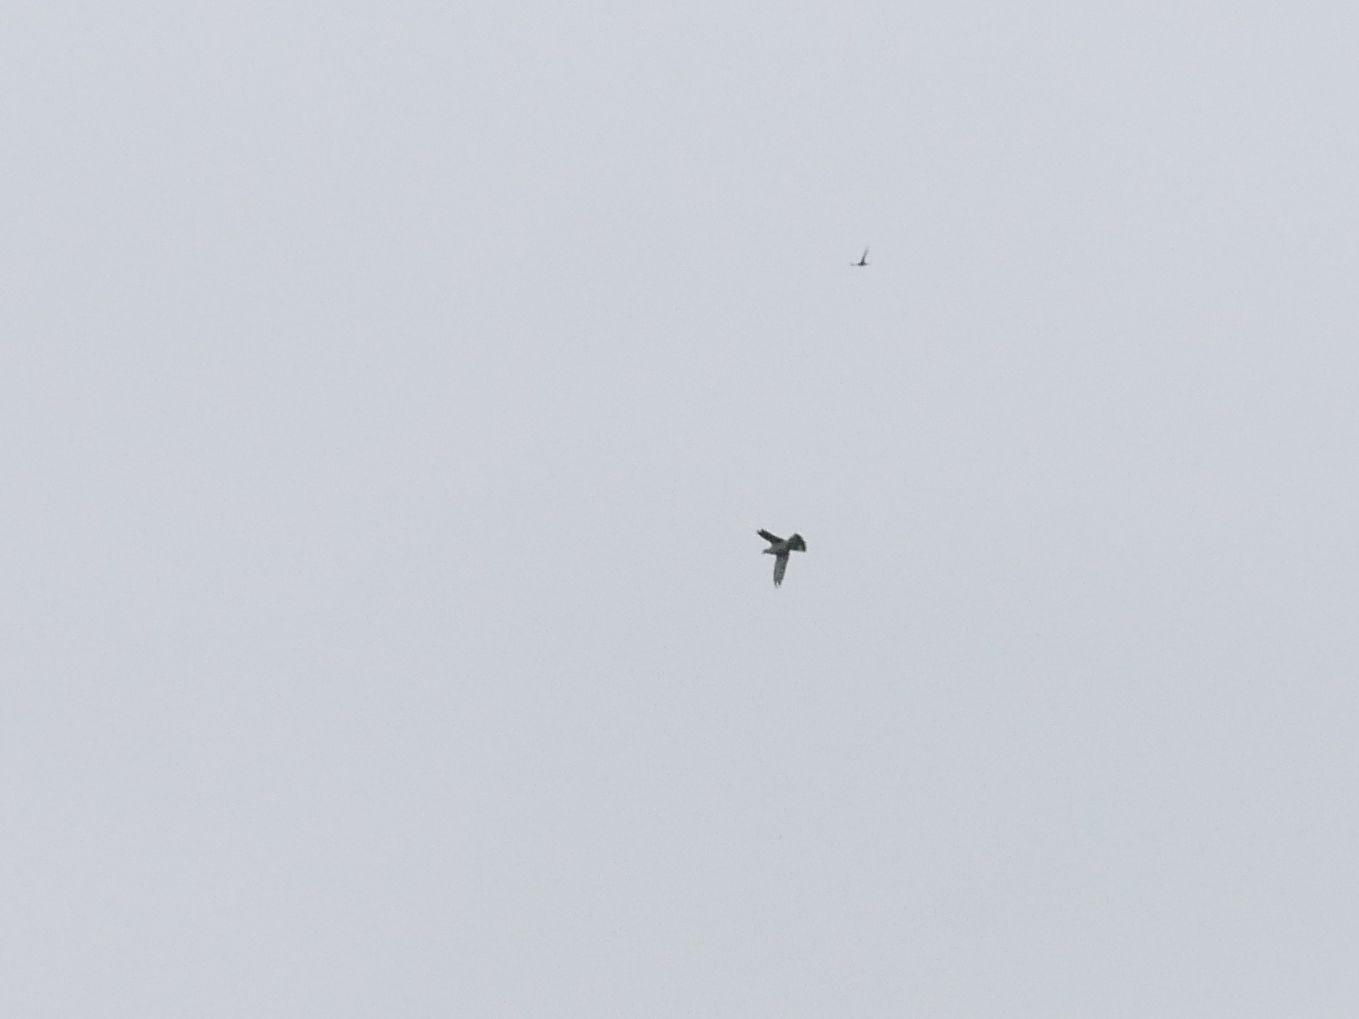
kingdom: Animalia
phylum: Chordata
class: Aves
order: Columbiformes
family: Columbidae
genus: Columba
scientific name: Columba palumbus
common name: Common wood pigeon
